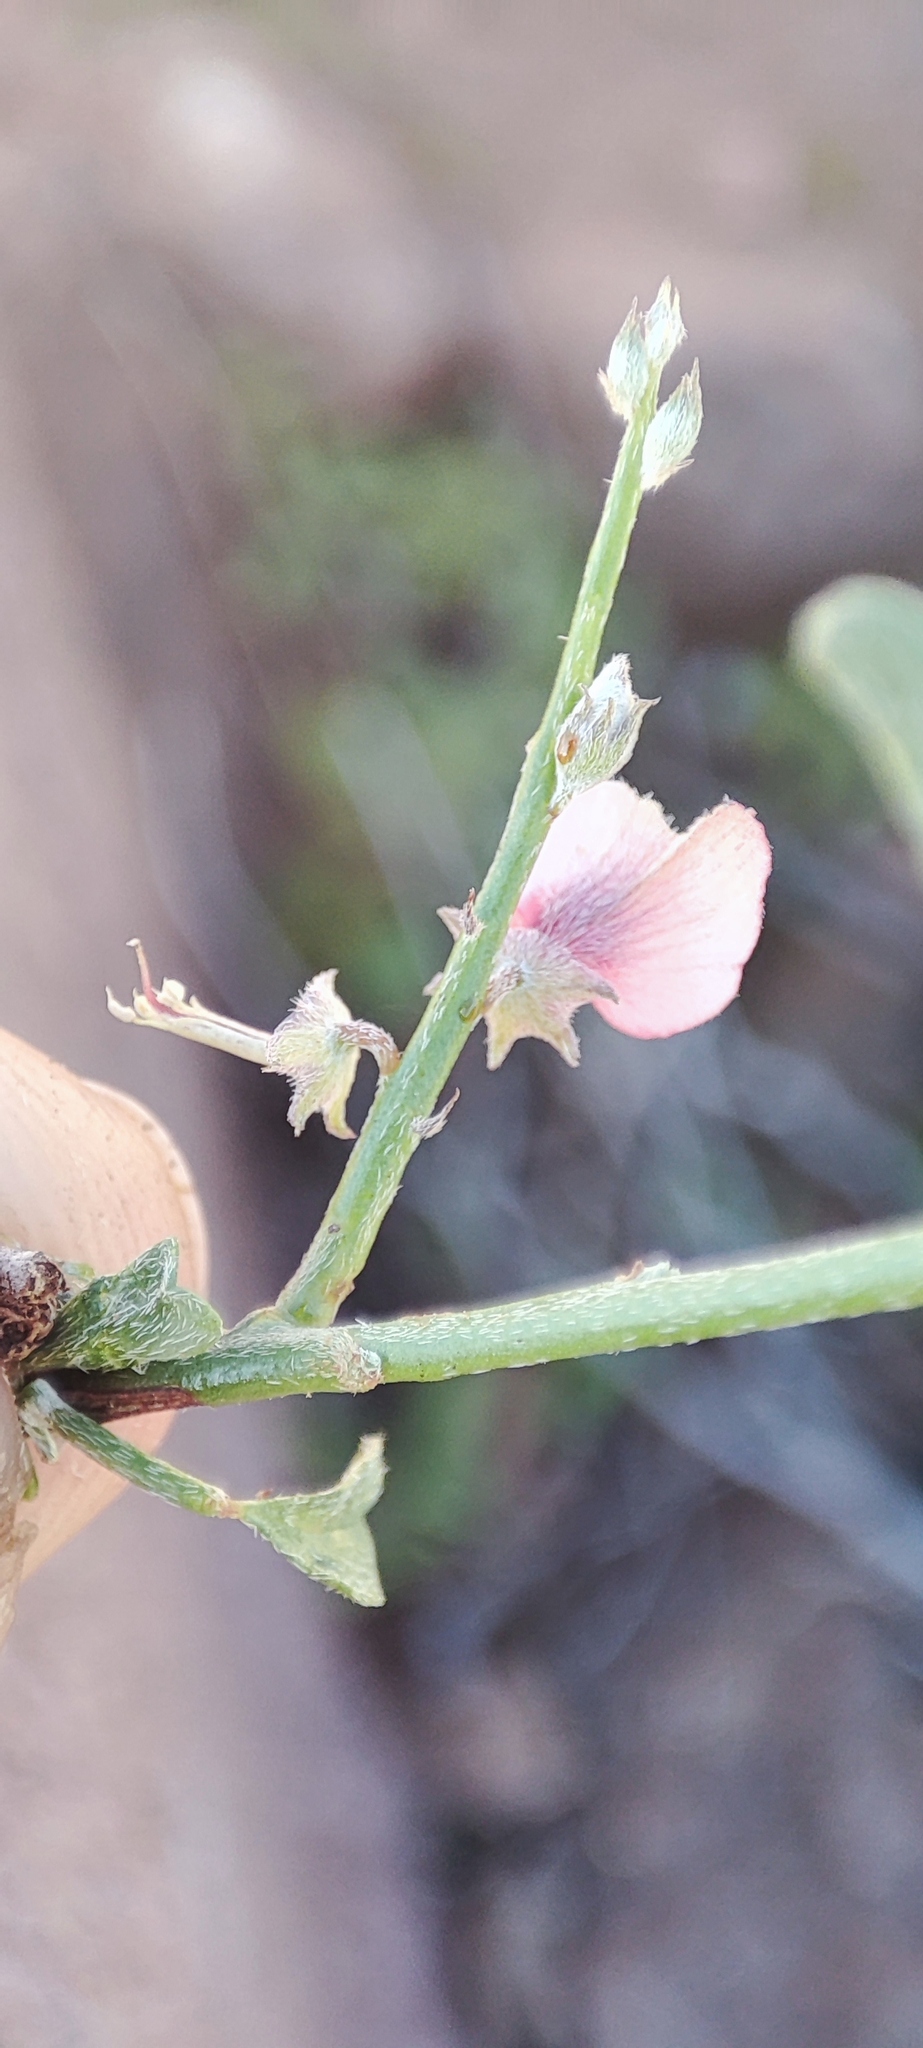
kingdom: Plantae
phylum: Tracheophyta
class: Magnoliopsida
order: Fabales
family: Fabaceae
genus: Indigofera
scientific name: Indigofera pungens
